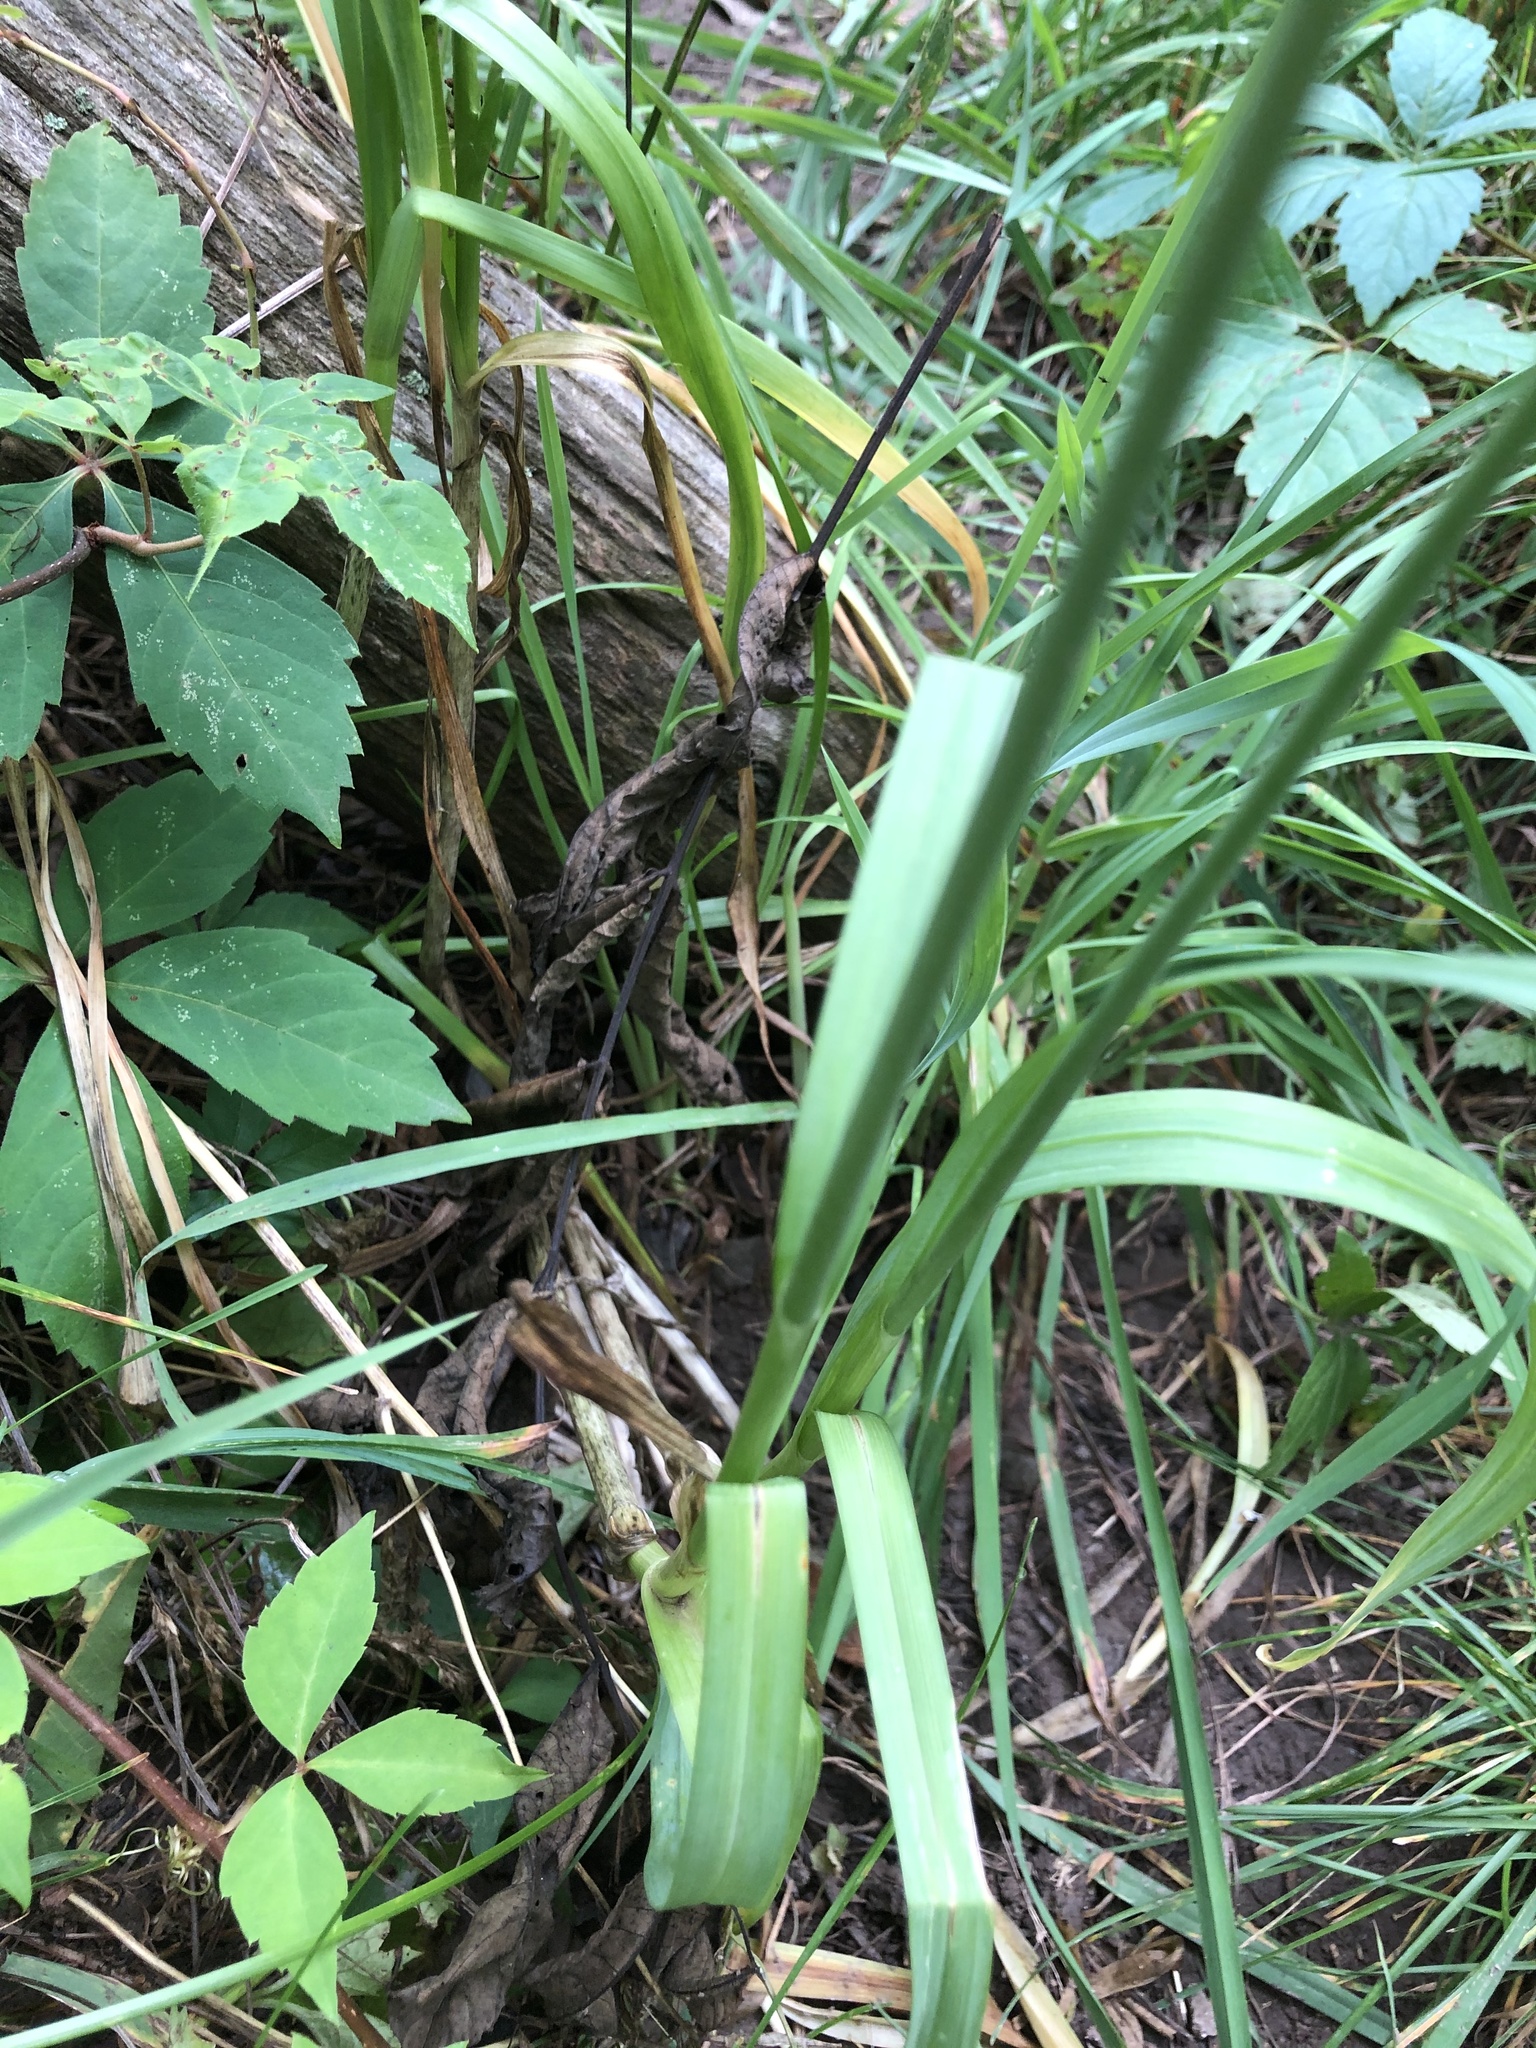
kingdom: Plantae
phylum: Tracheophyta
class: Liliopsida
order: Asparagales
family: Amaryllidaceae
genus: Allium
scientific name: Allium sativum
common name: Garlic
